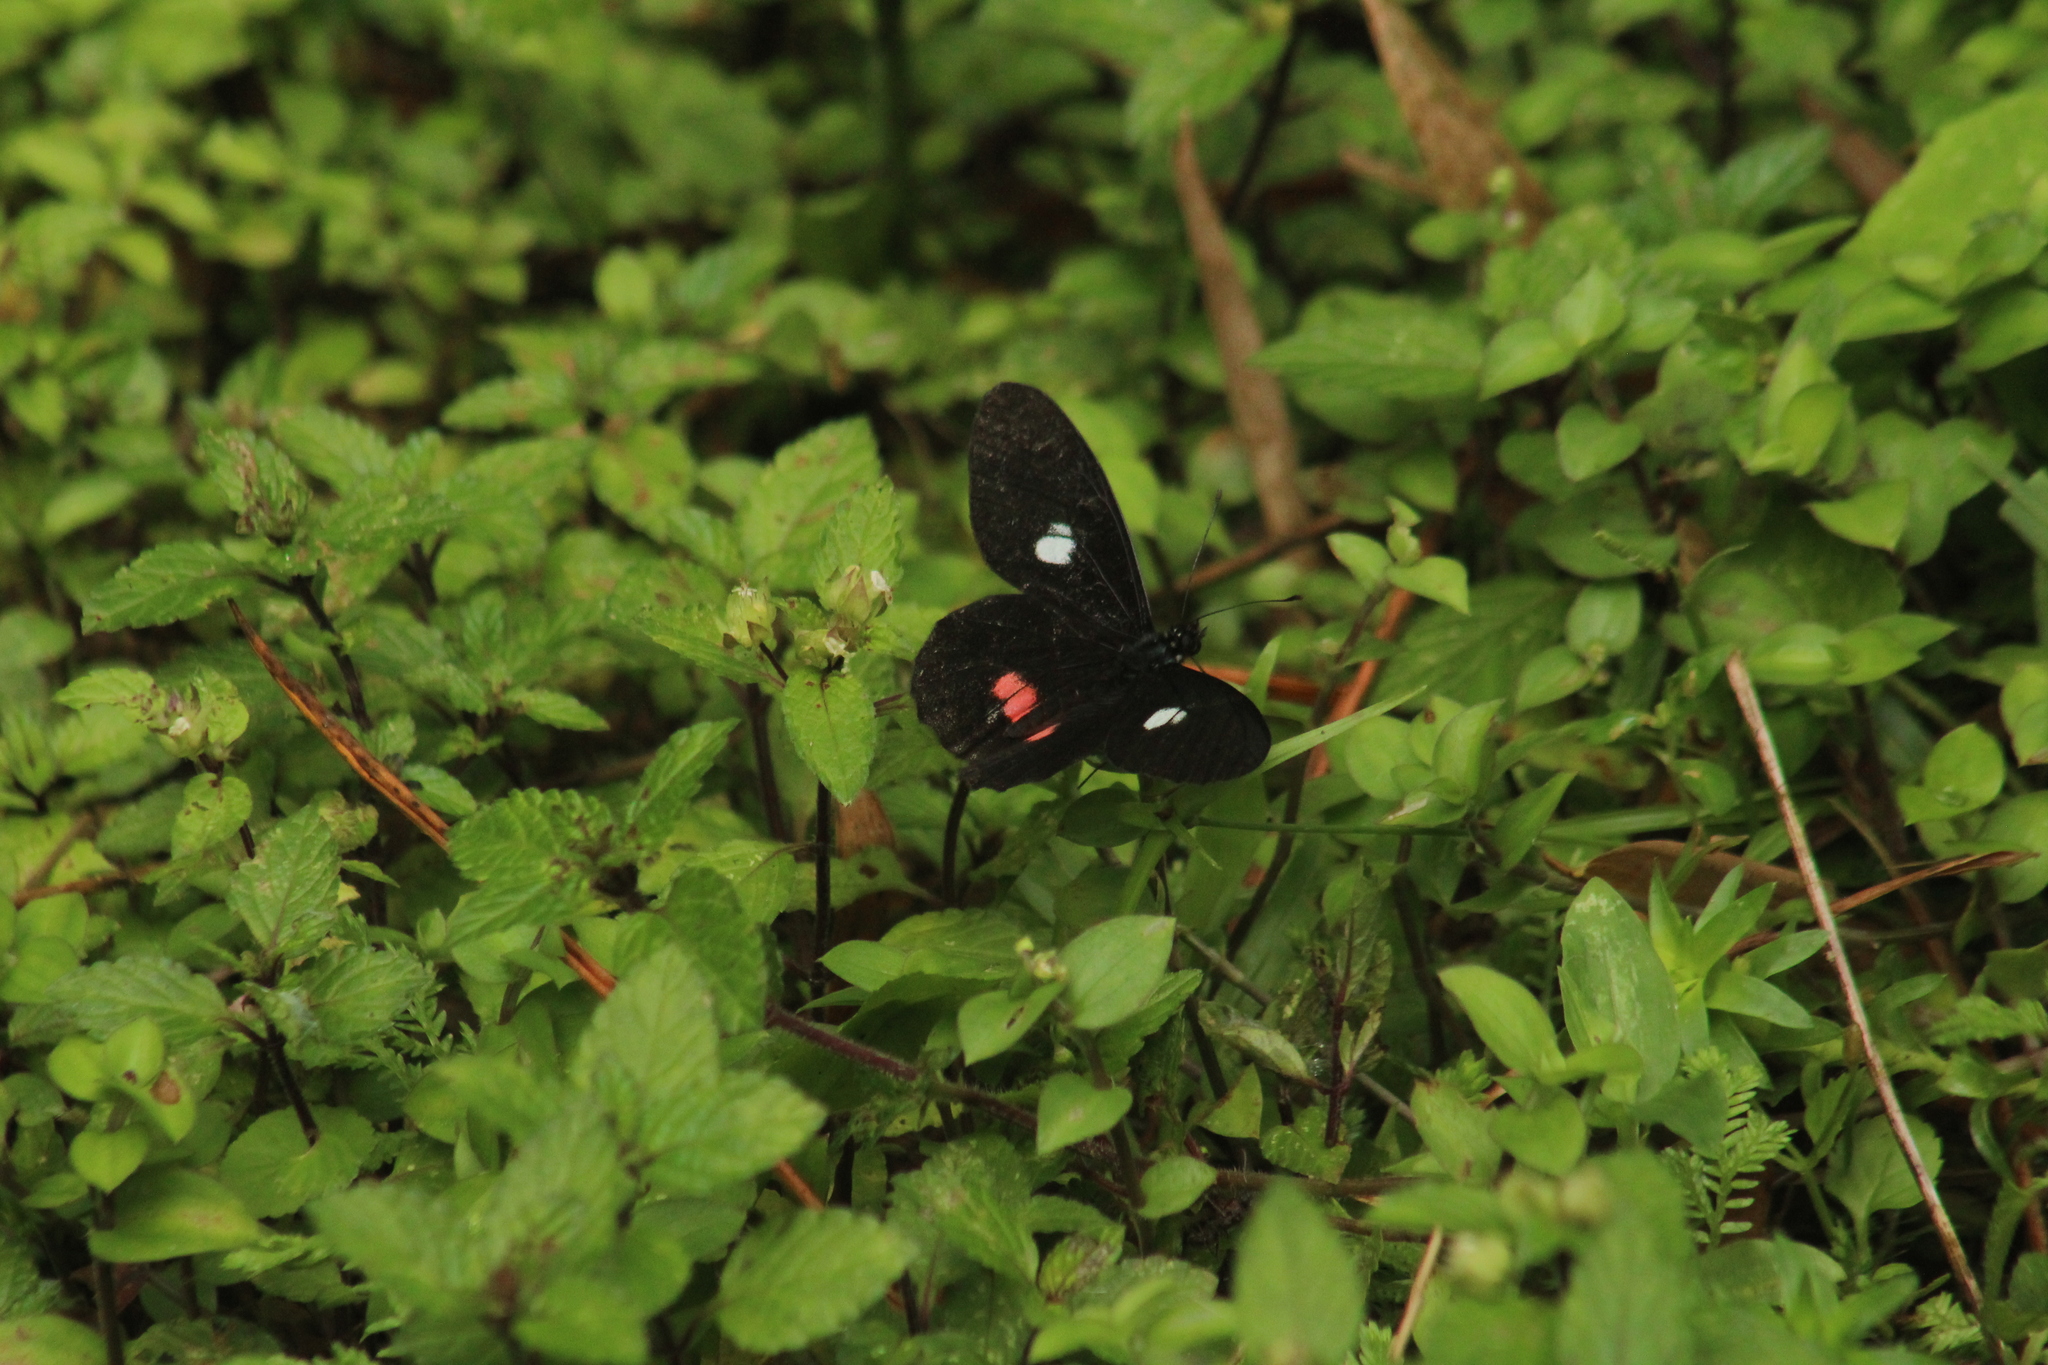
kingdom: Animalia
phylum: Arthropoda
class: Insecta
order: Lepidoptera
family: Pieridae
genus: Archonias
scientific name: Archonias brassolis
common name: Cattleheart white
